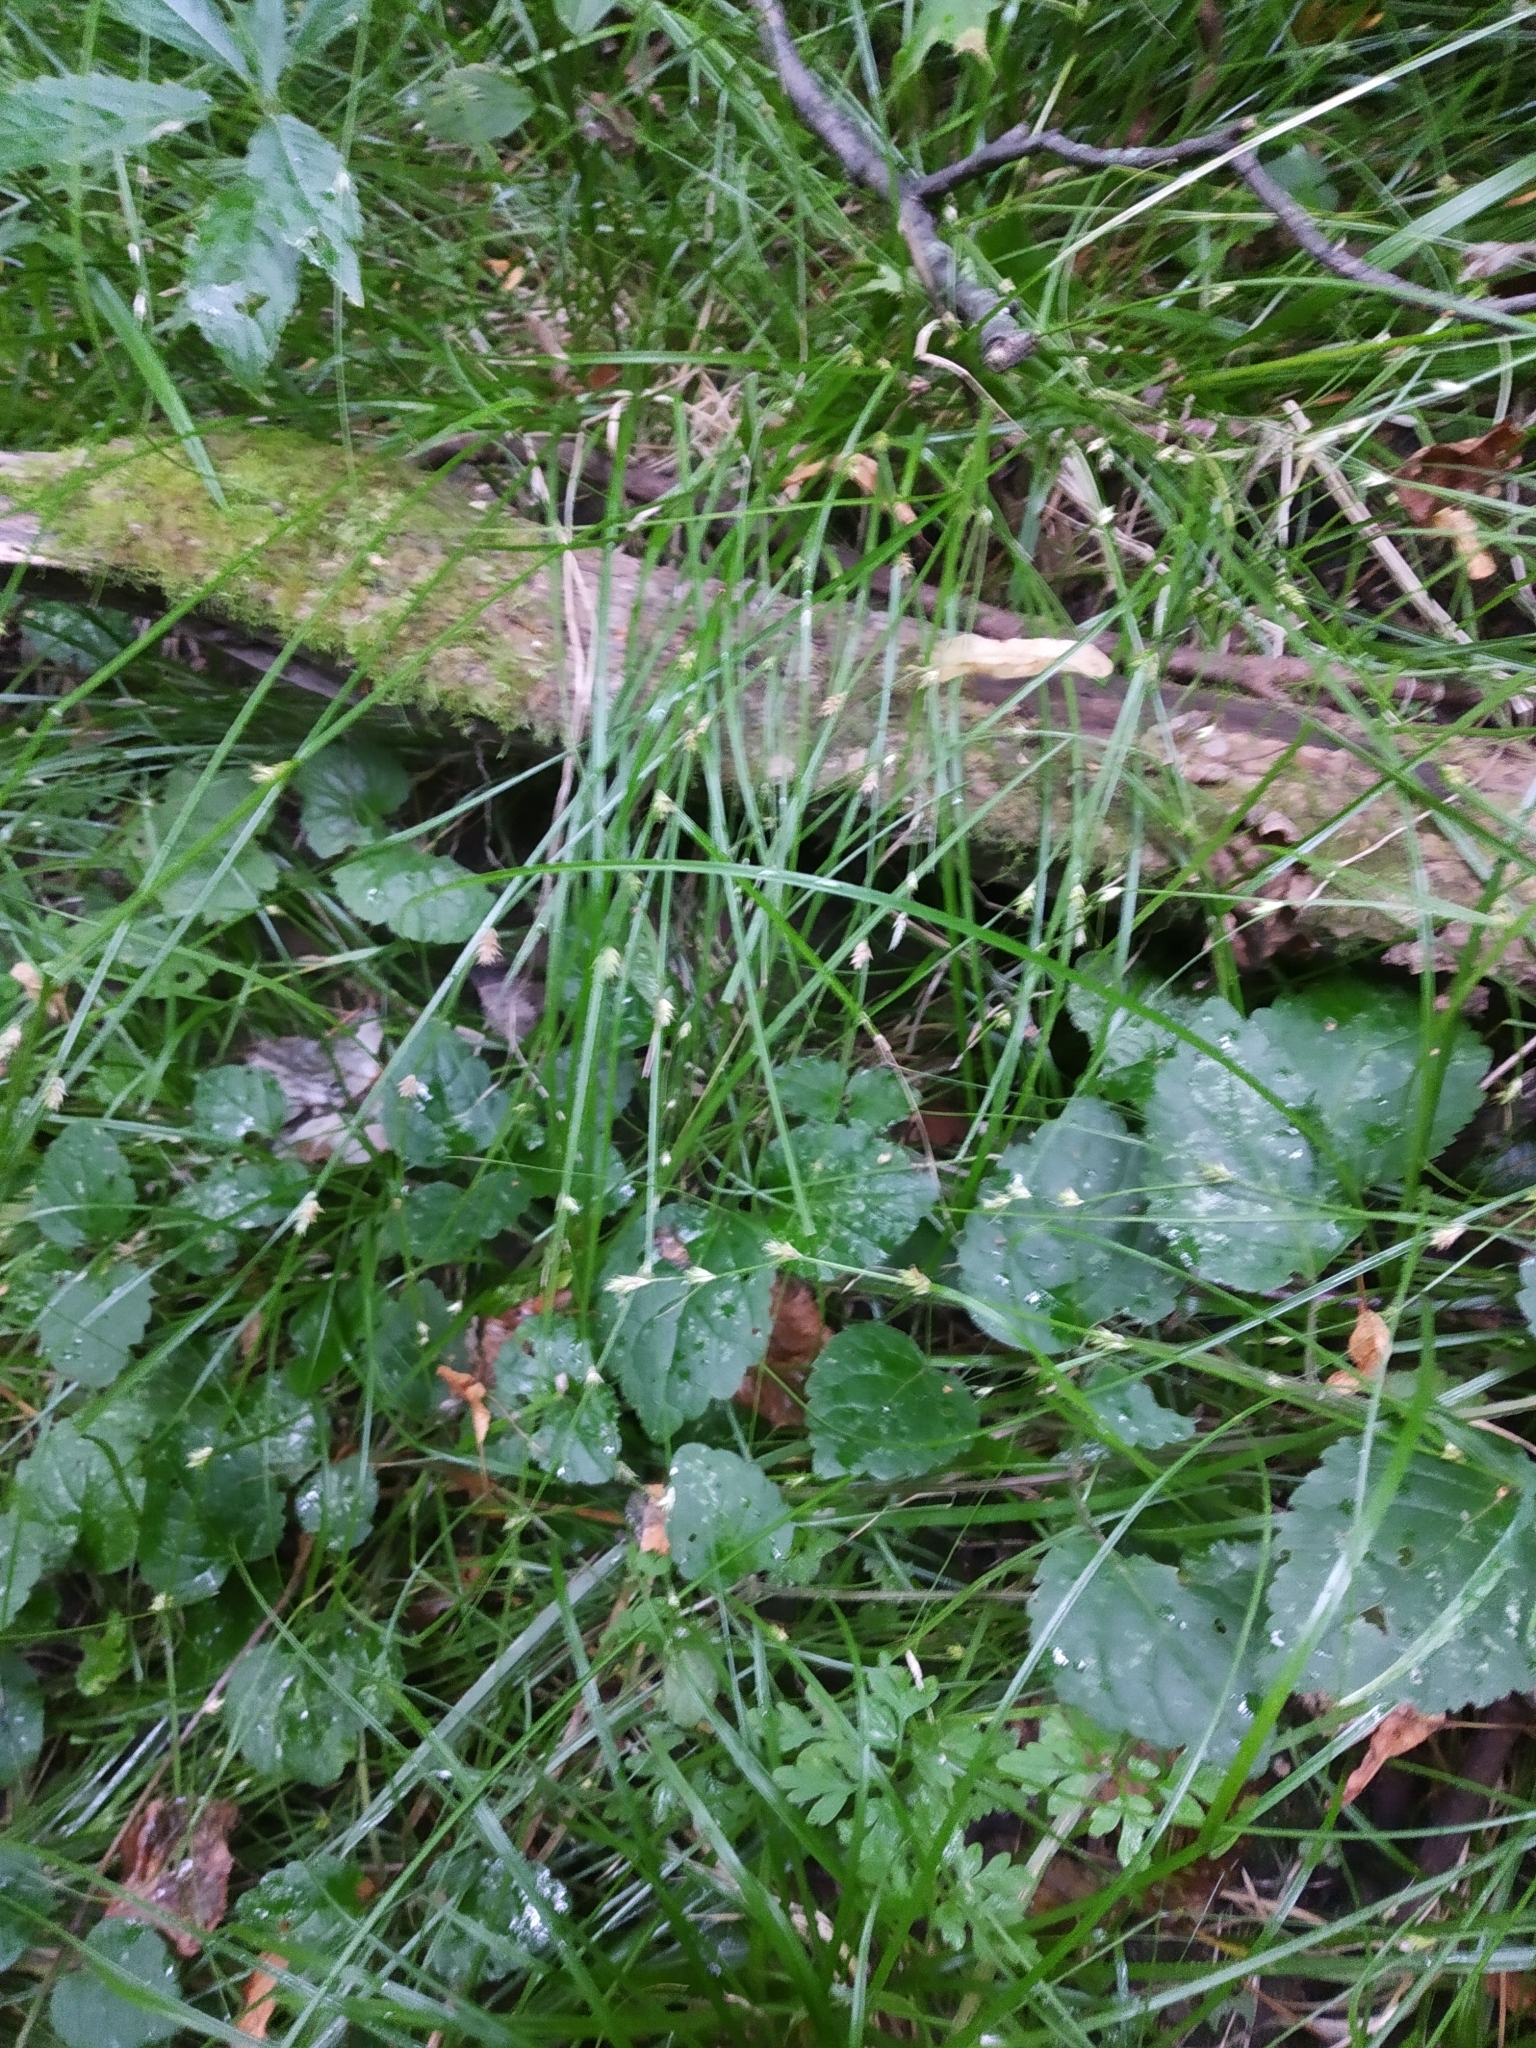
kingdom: Plantae
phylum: Tracheophyta
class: Liliopsida
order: Poales
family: Cyperaceae
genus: Carex
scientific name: Carex remota
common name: Remote sedge
